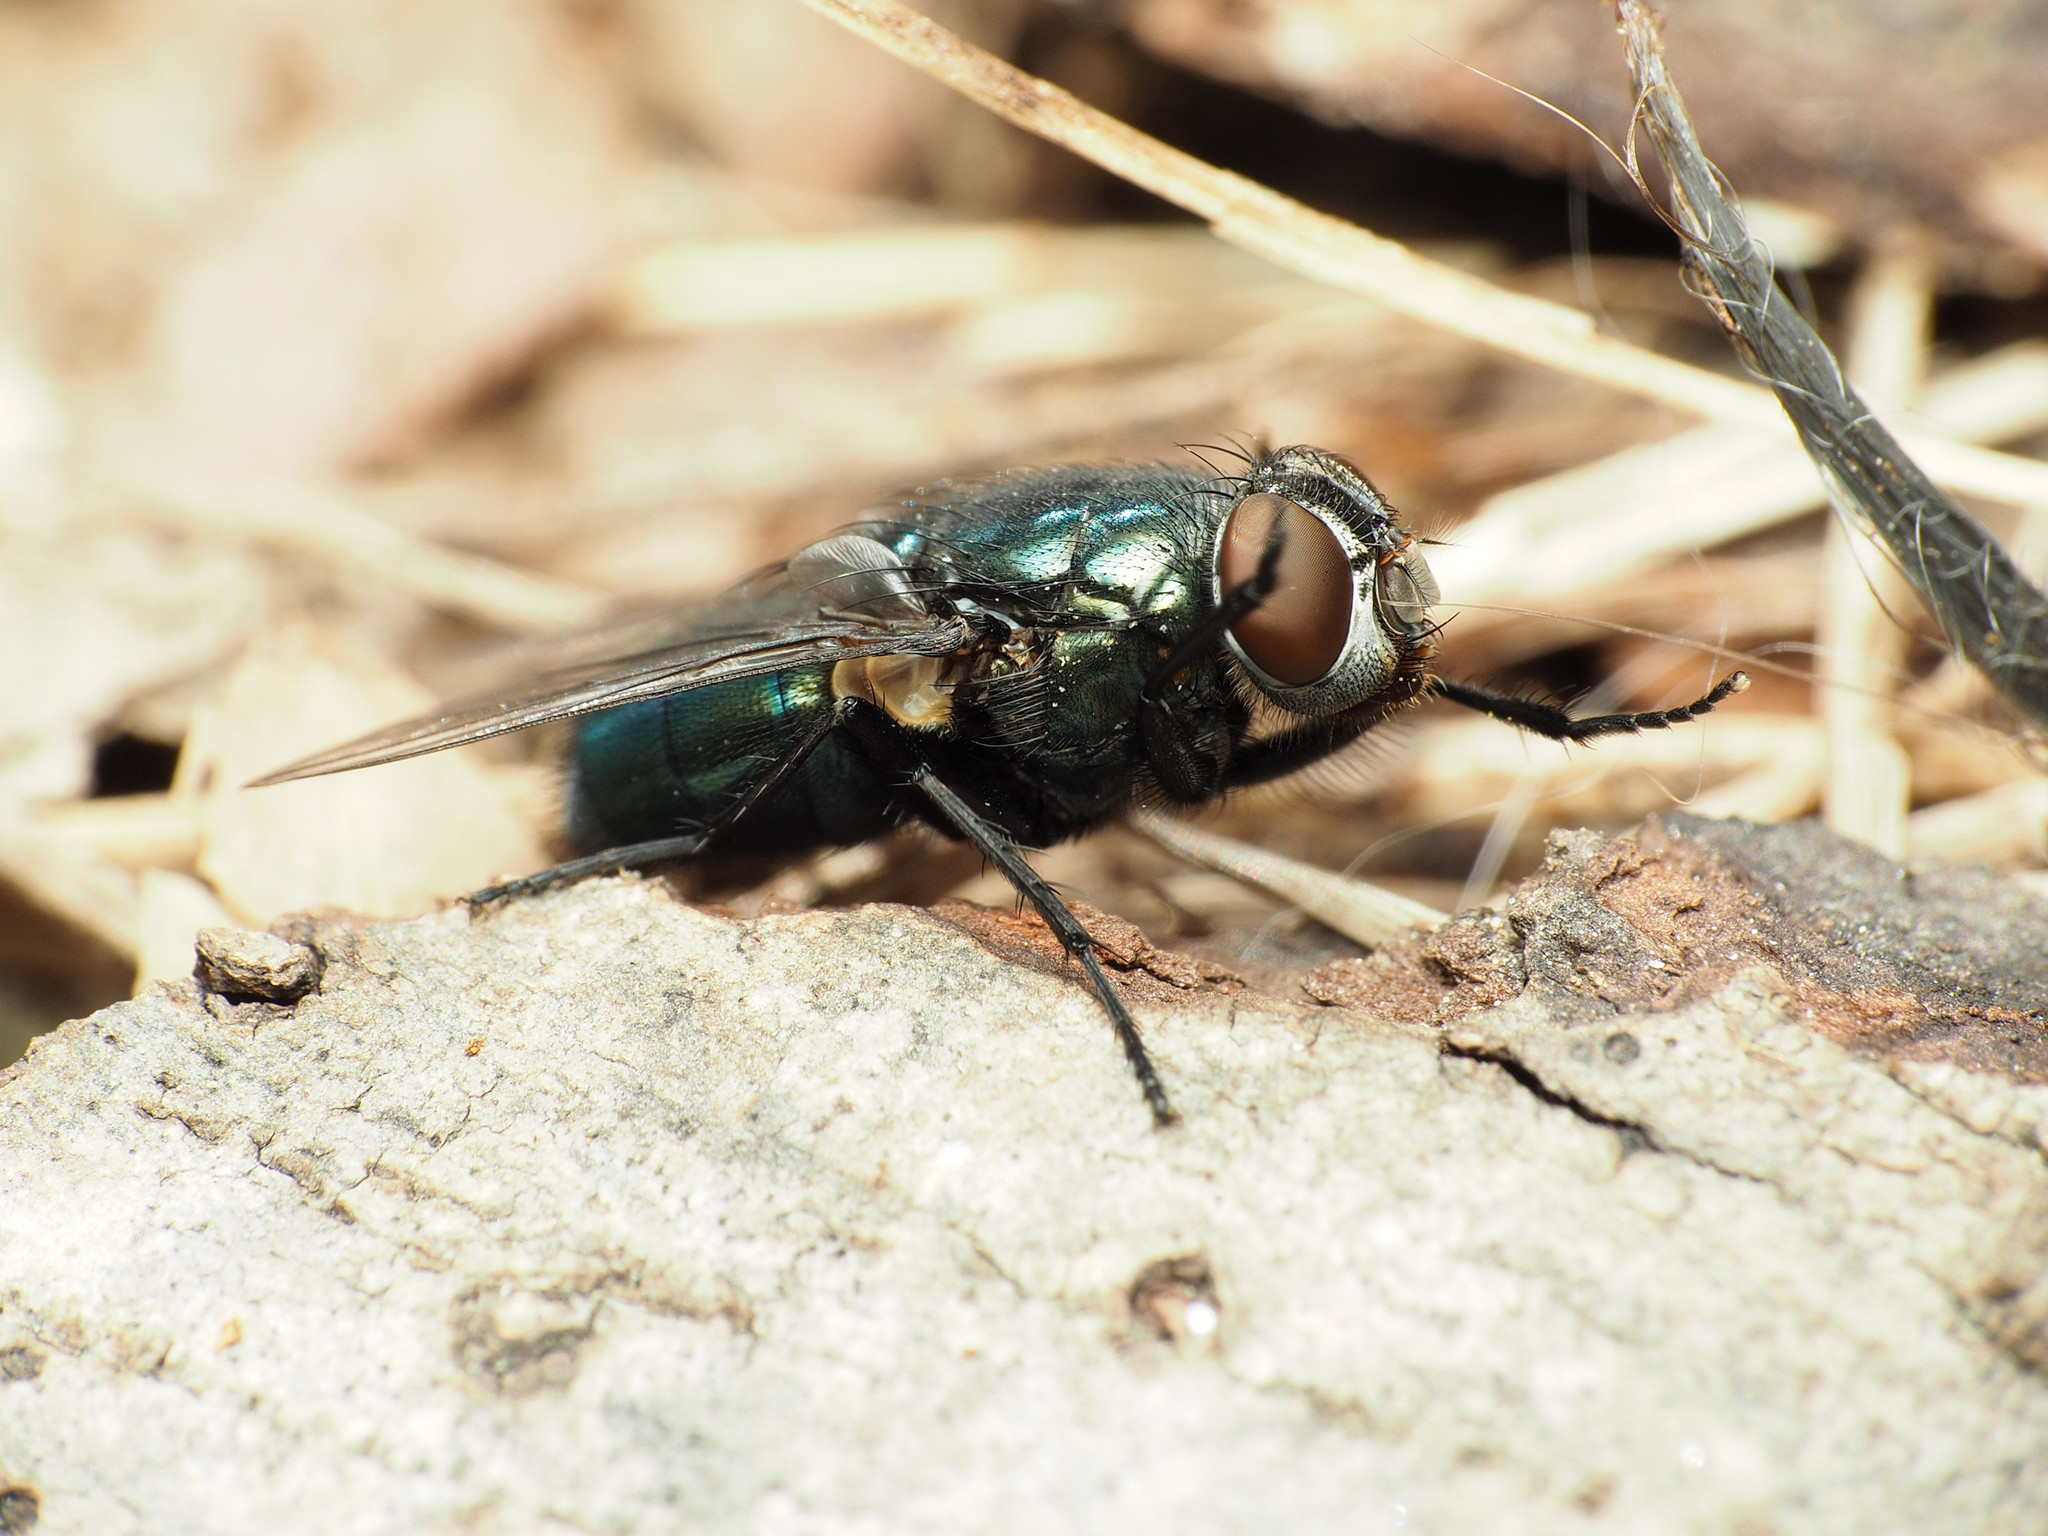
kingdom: Animalia
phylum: Arthropoda
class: Insecta
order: Diptera
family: Calliphoridae
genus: Phormia
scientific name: Phormia regina
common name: Black blow fly
